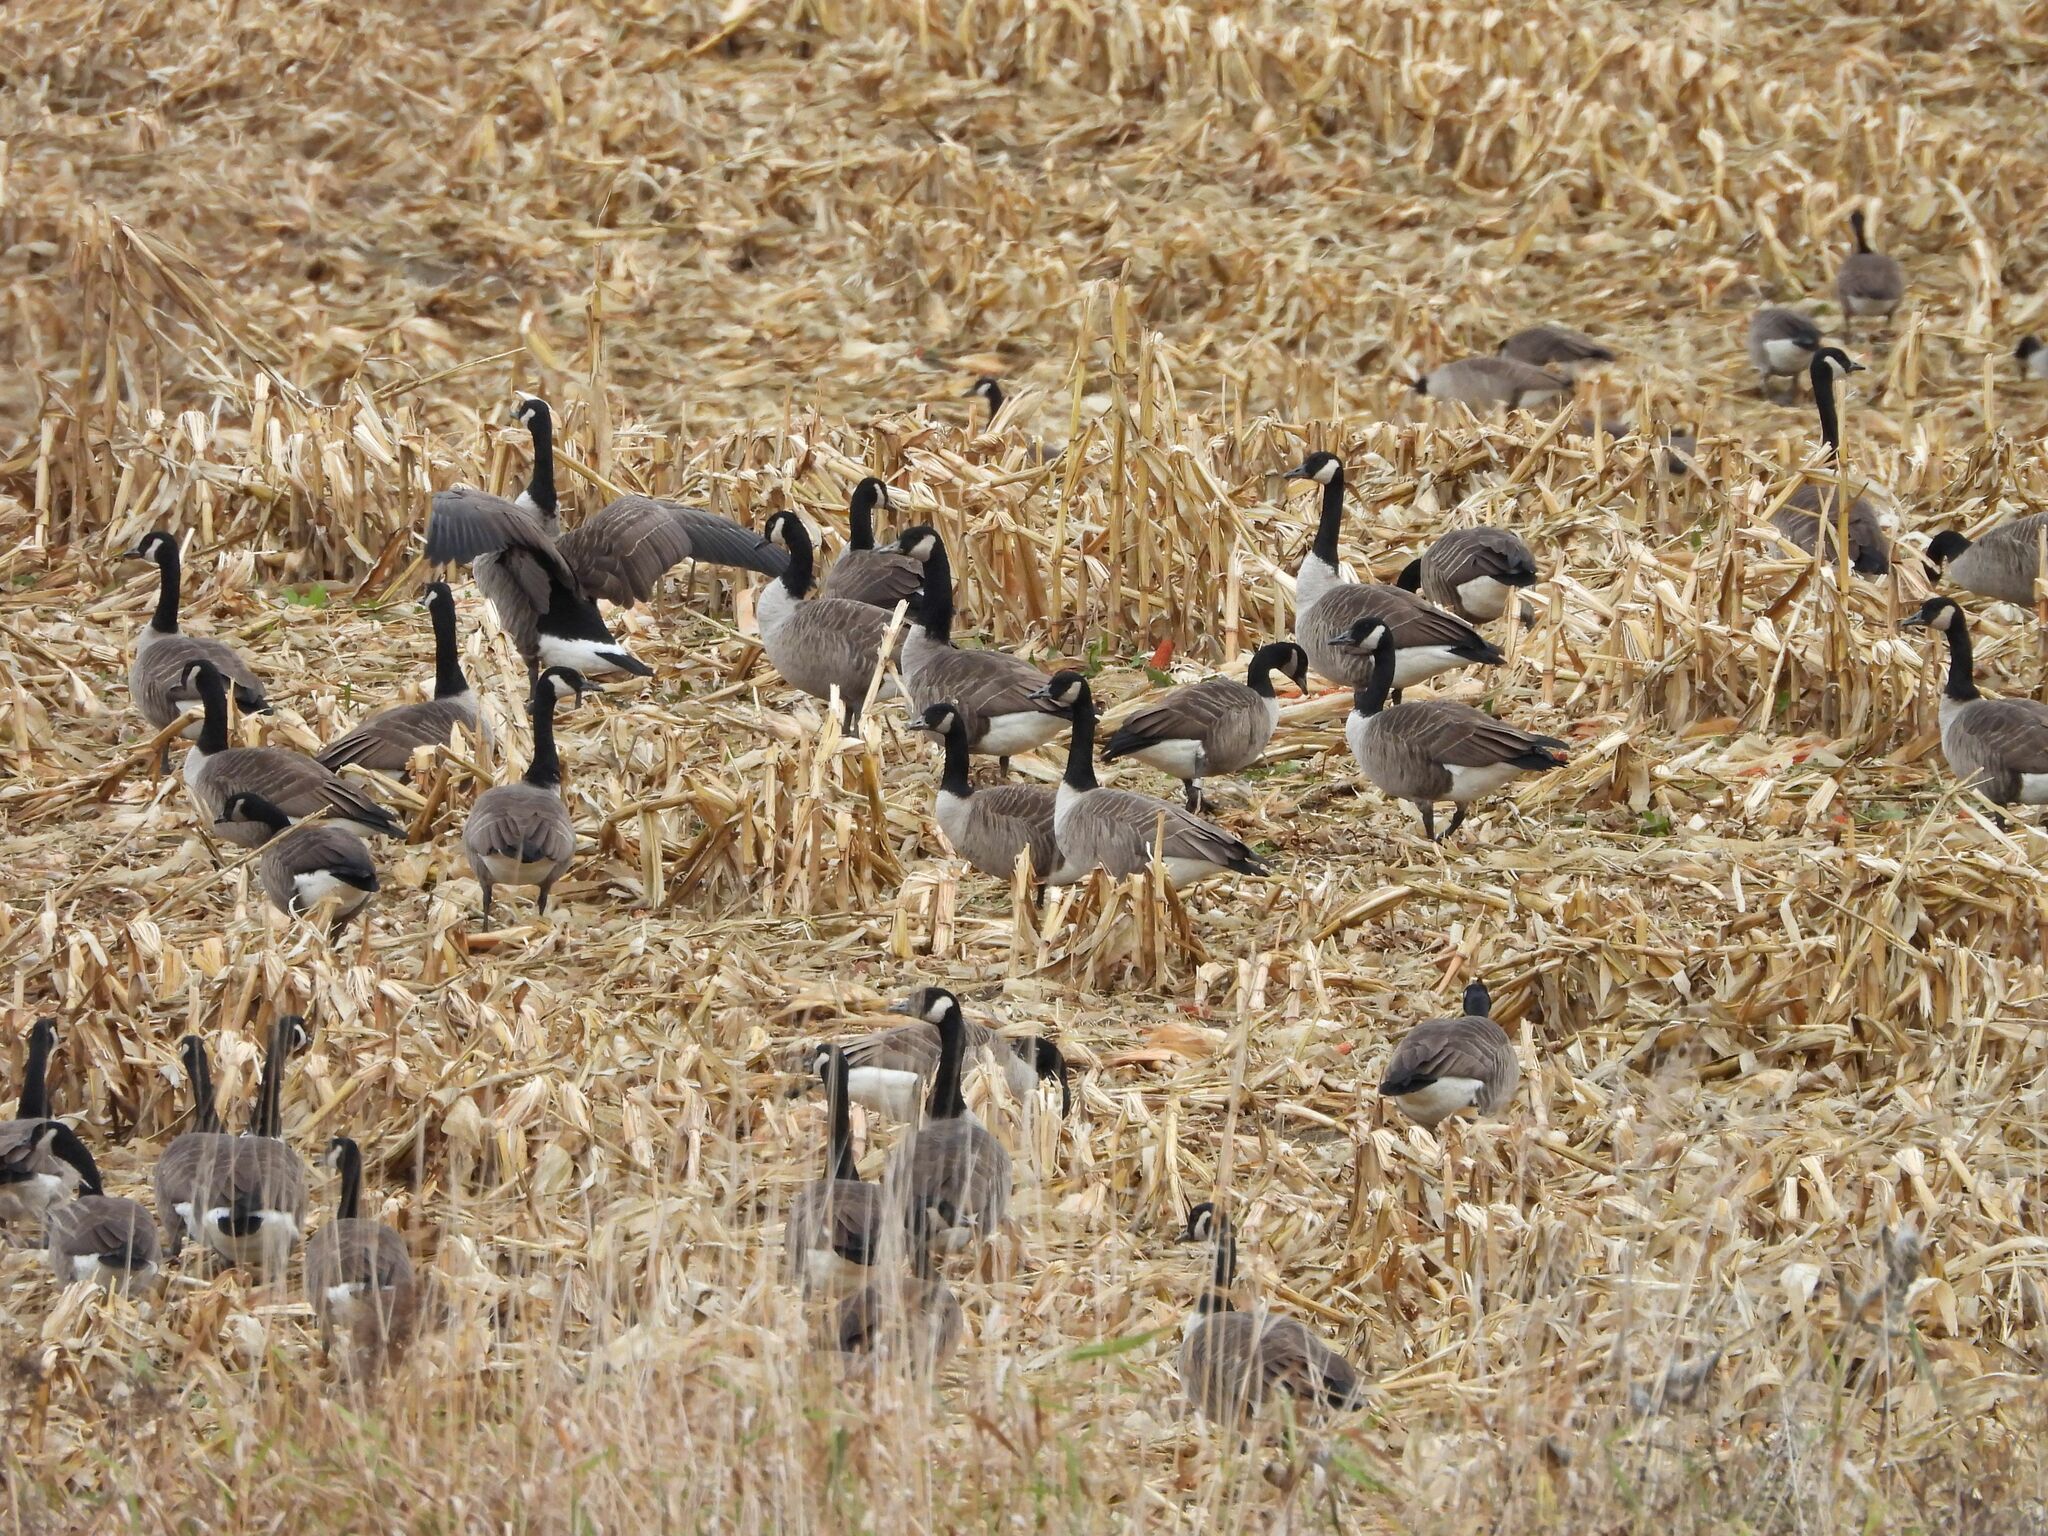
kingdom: Animalia
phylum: Chordata
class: Aves
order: Anseriformes
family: Anatidae
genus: Branta
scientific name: Branta canadensis
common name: Canada goose
